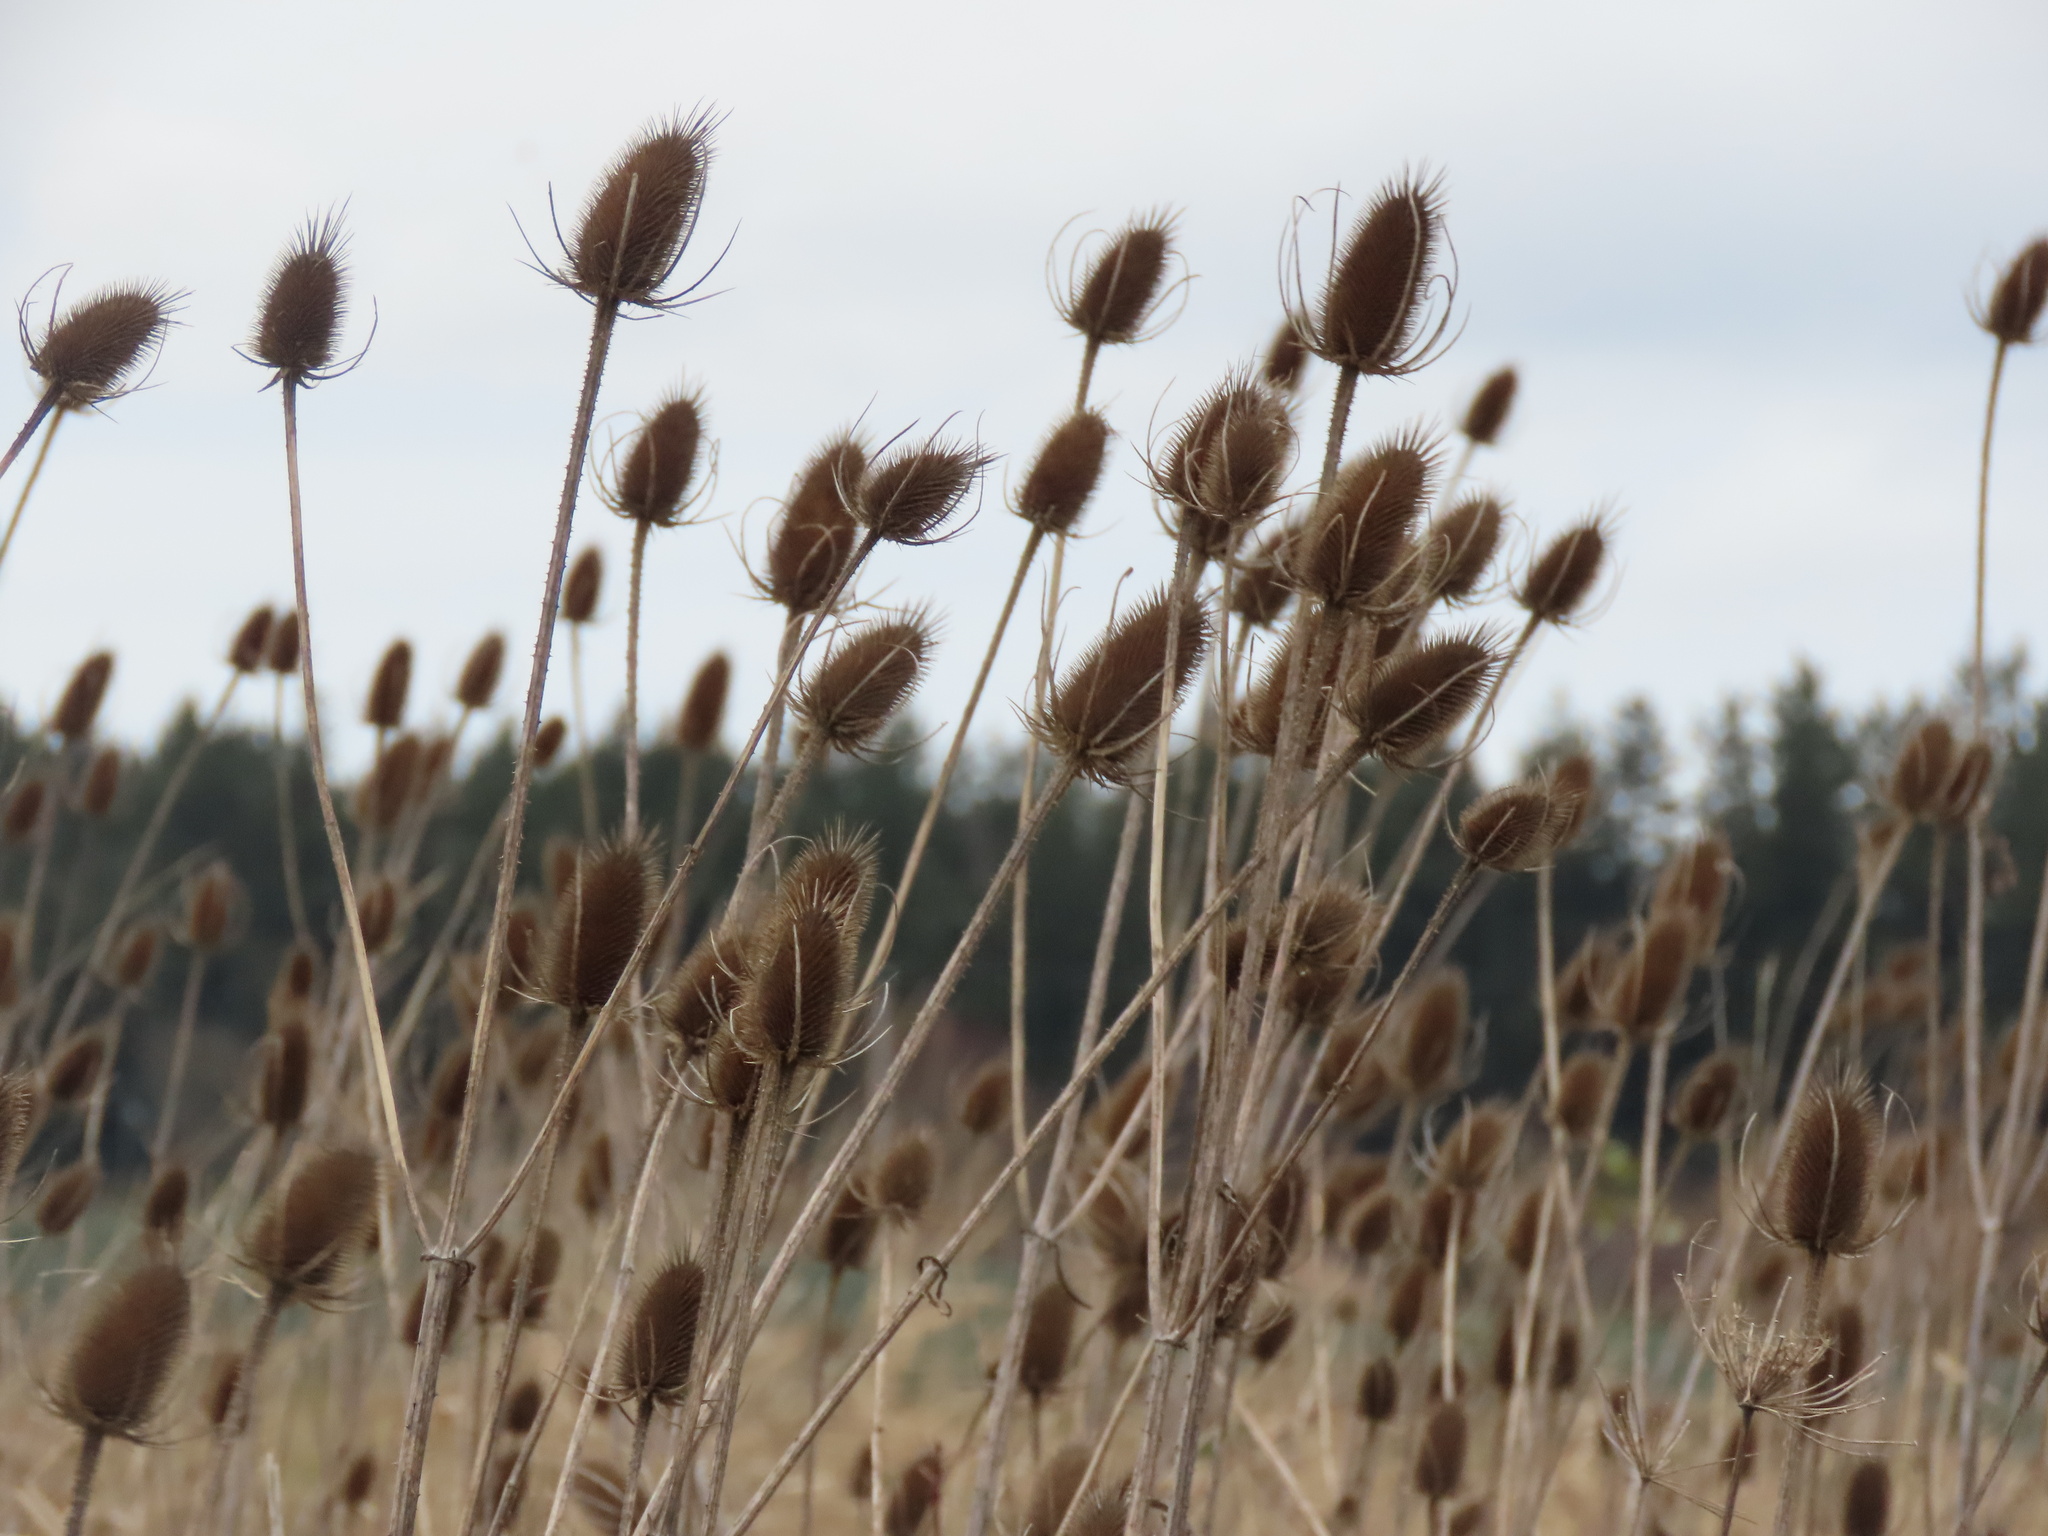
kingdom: Plantae
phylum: Tracheophyta
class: Magnoliopsida
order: Dipsacales
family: Caprifoliaceae
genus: Dipsacus
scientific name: Dipsacus fullonum
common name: Teasel
